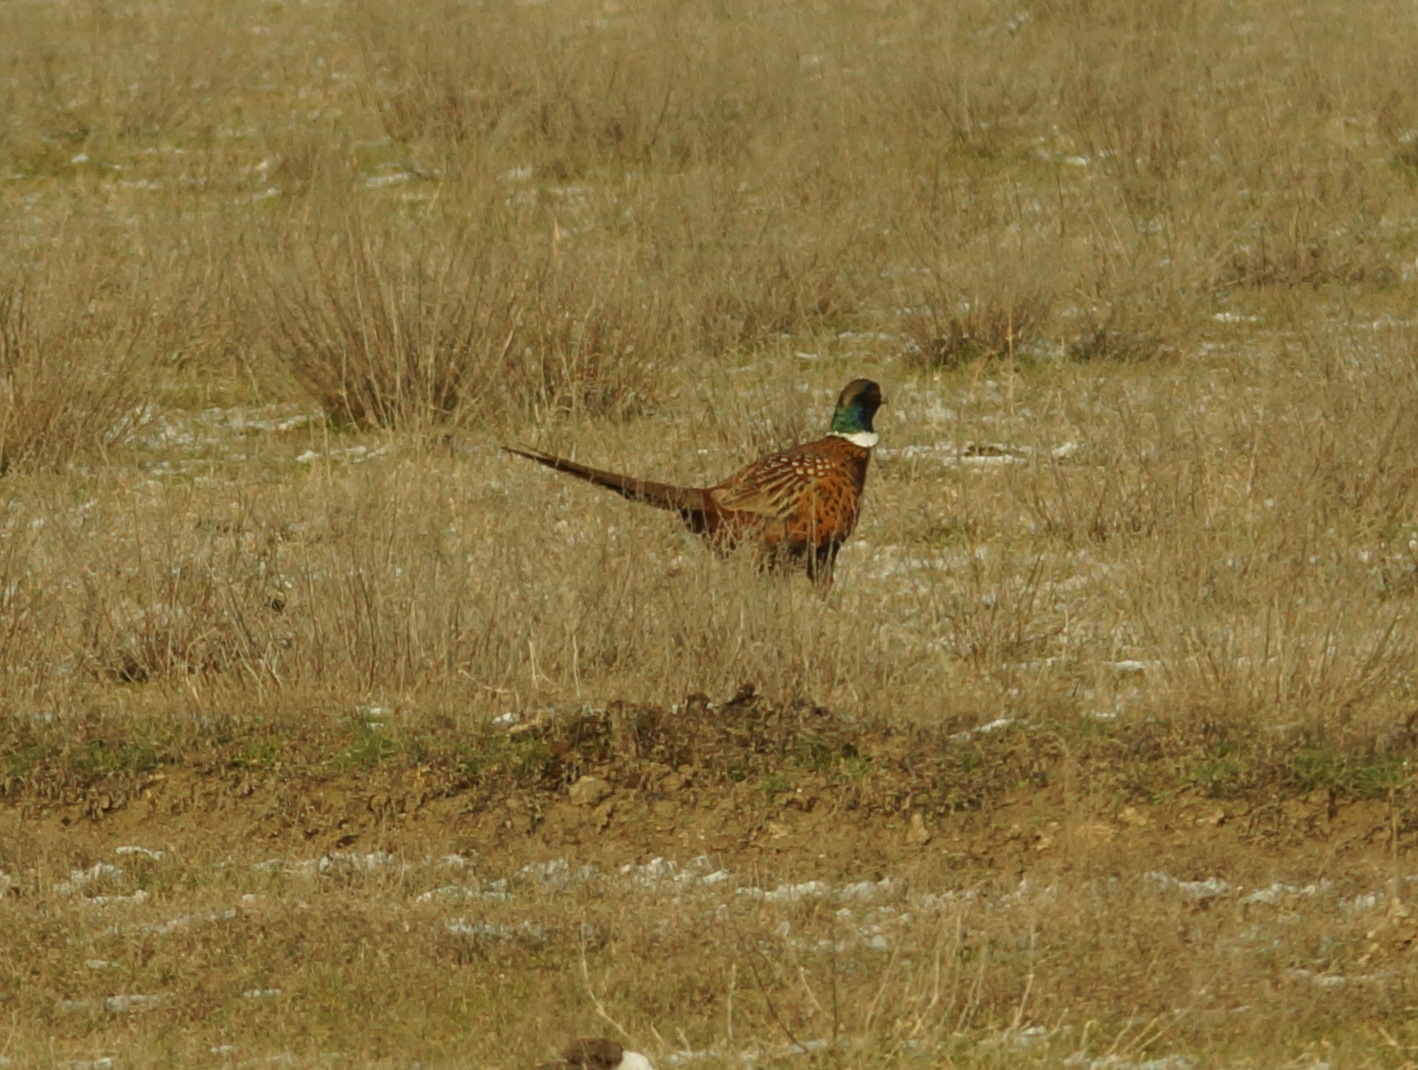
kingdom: Animalia
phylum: Chordata
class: Aves
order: Galliformes
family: Phasianidae
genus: Phasianus
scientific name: Phasianus colchicus
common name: Common pheasant
